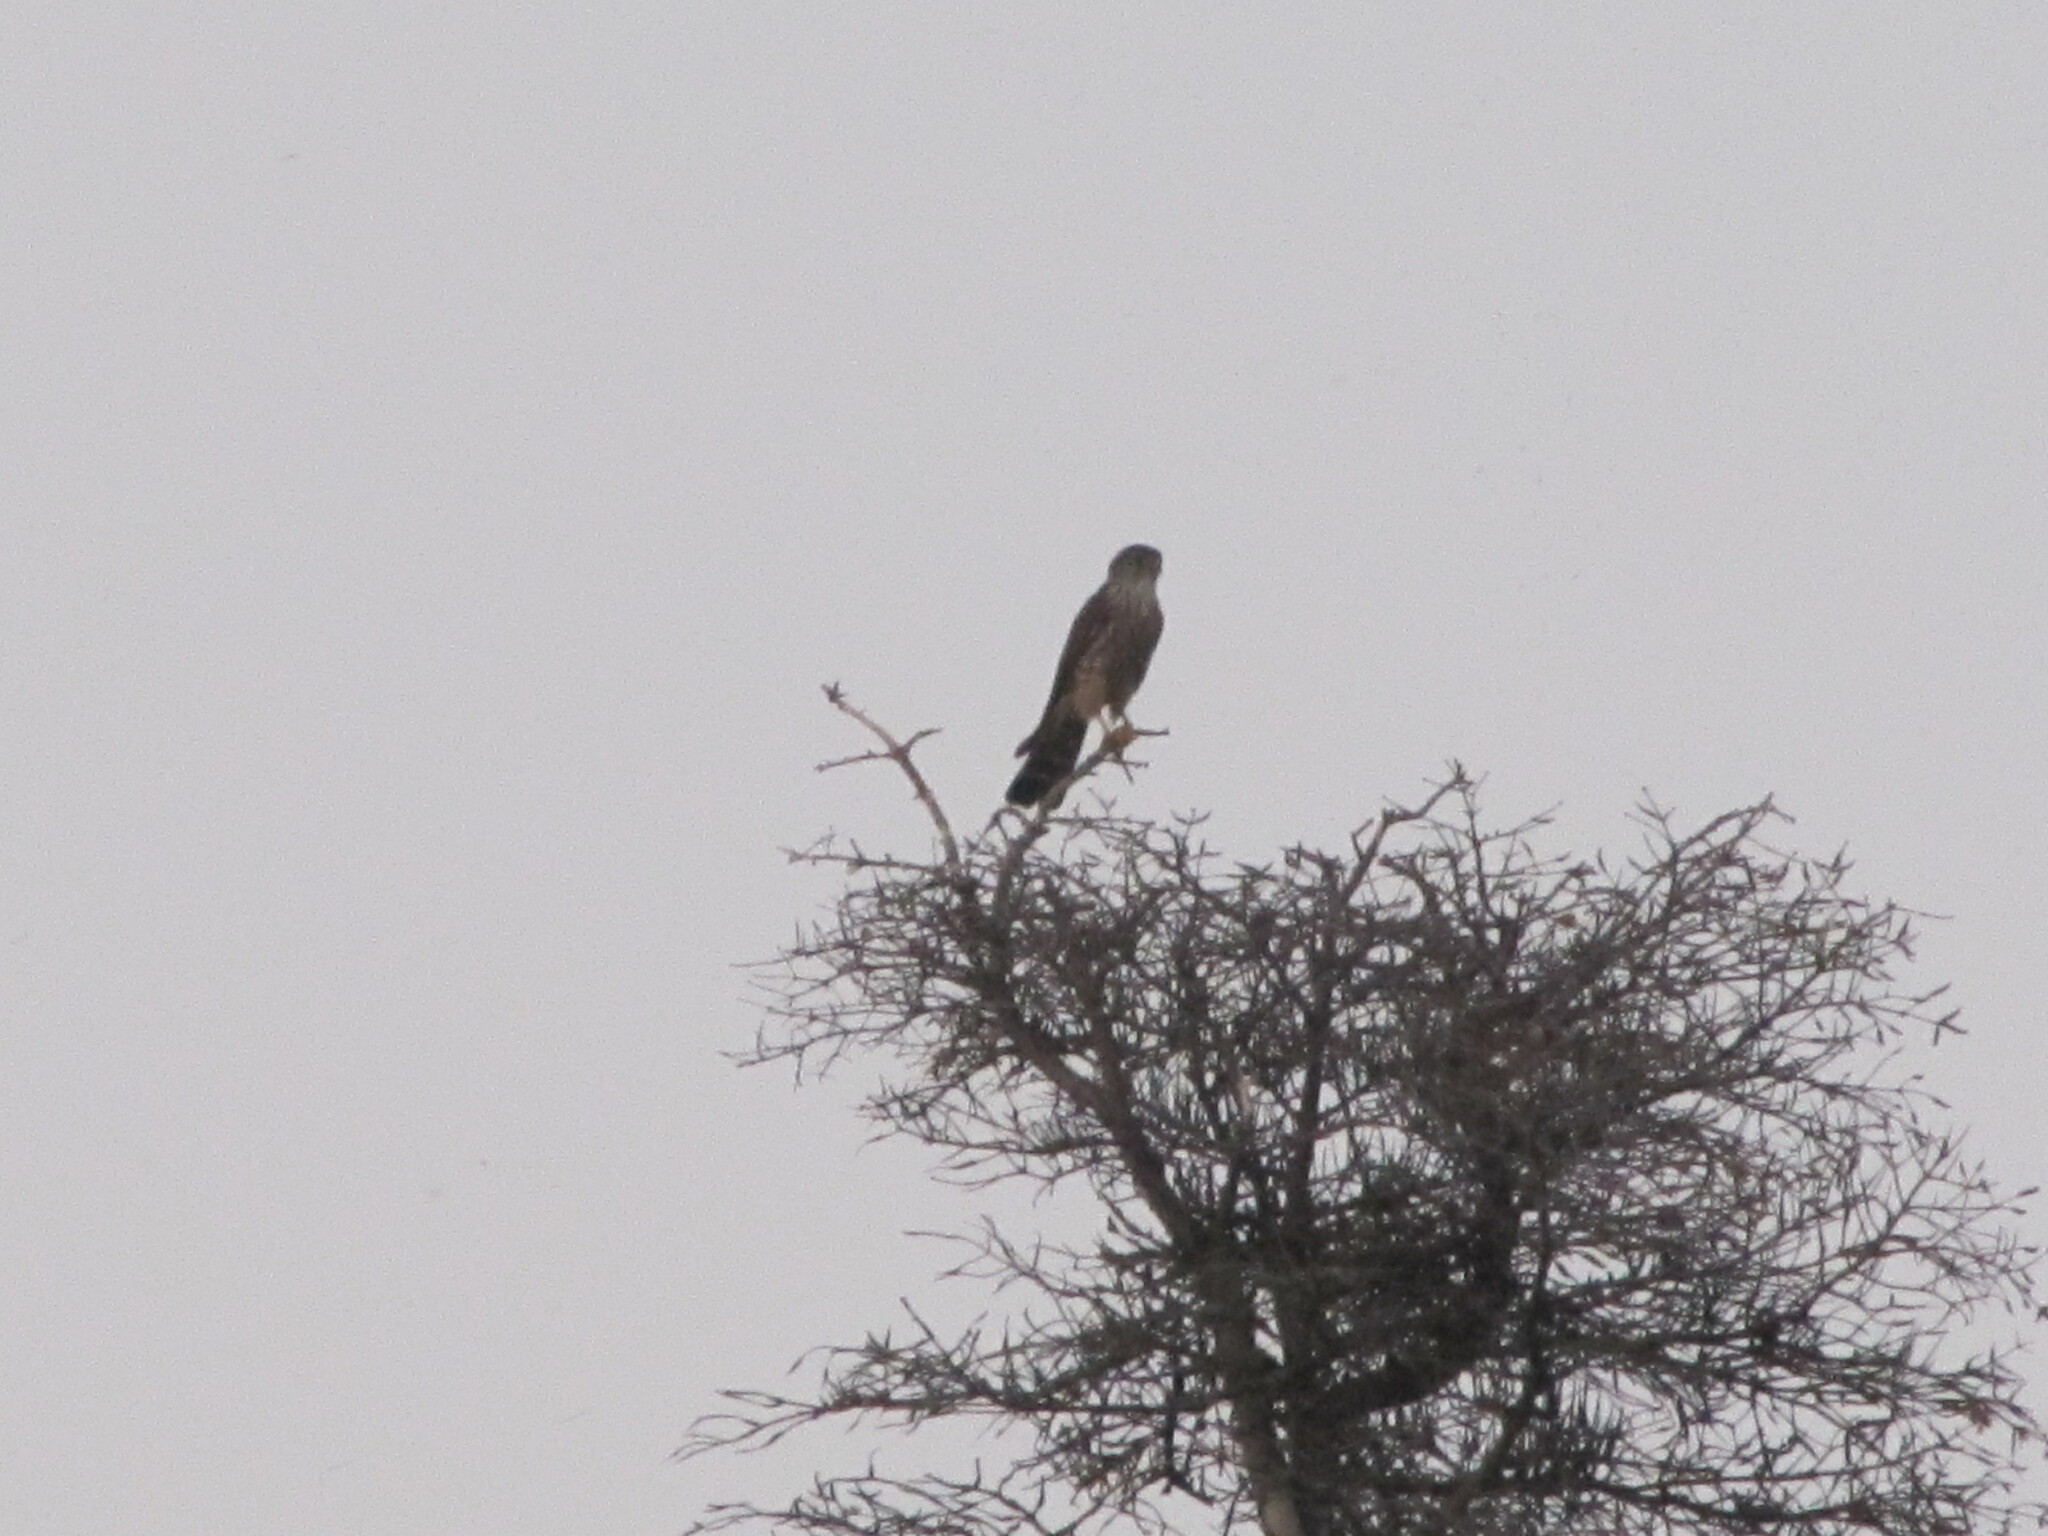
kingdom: Animalia
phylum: Chordata
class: Aves
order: Falconiformes
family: Falconidae
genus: Falco
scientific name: Falco columbarius
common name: Merlin
